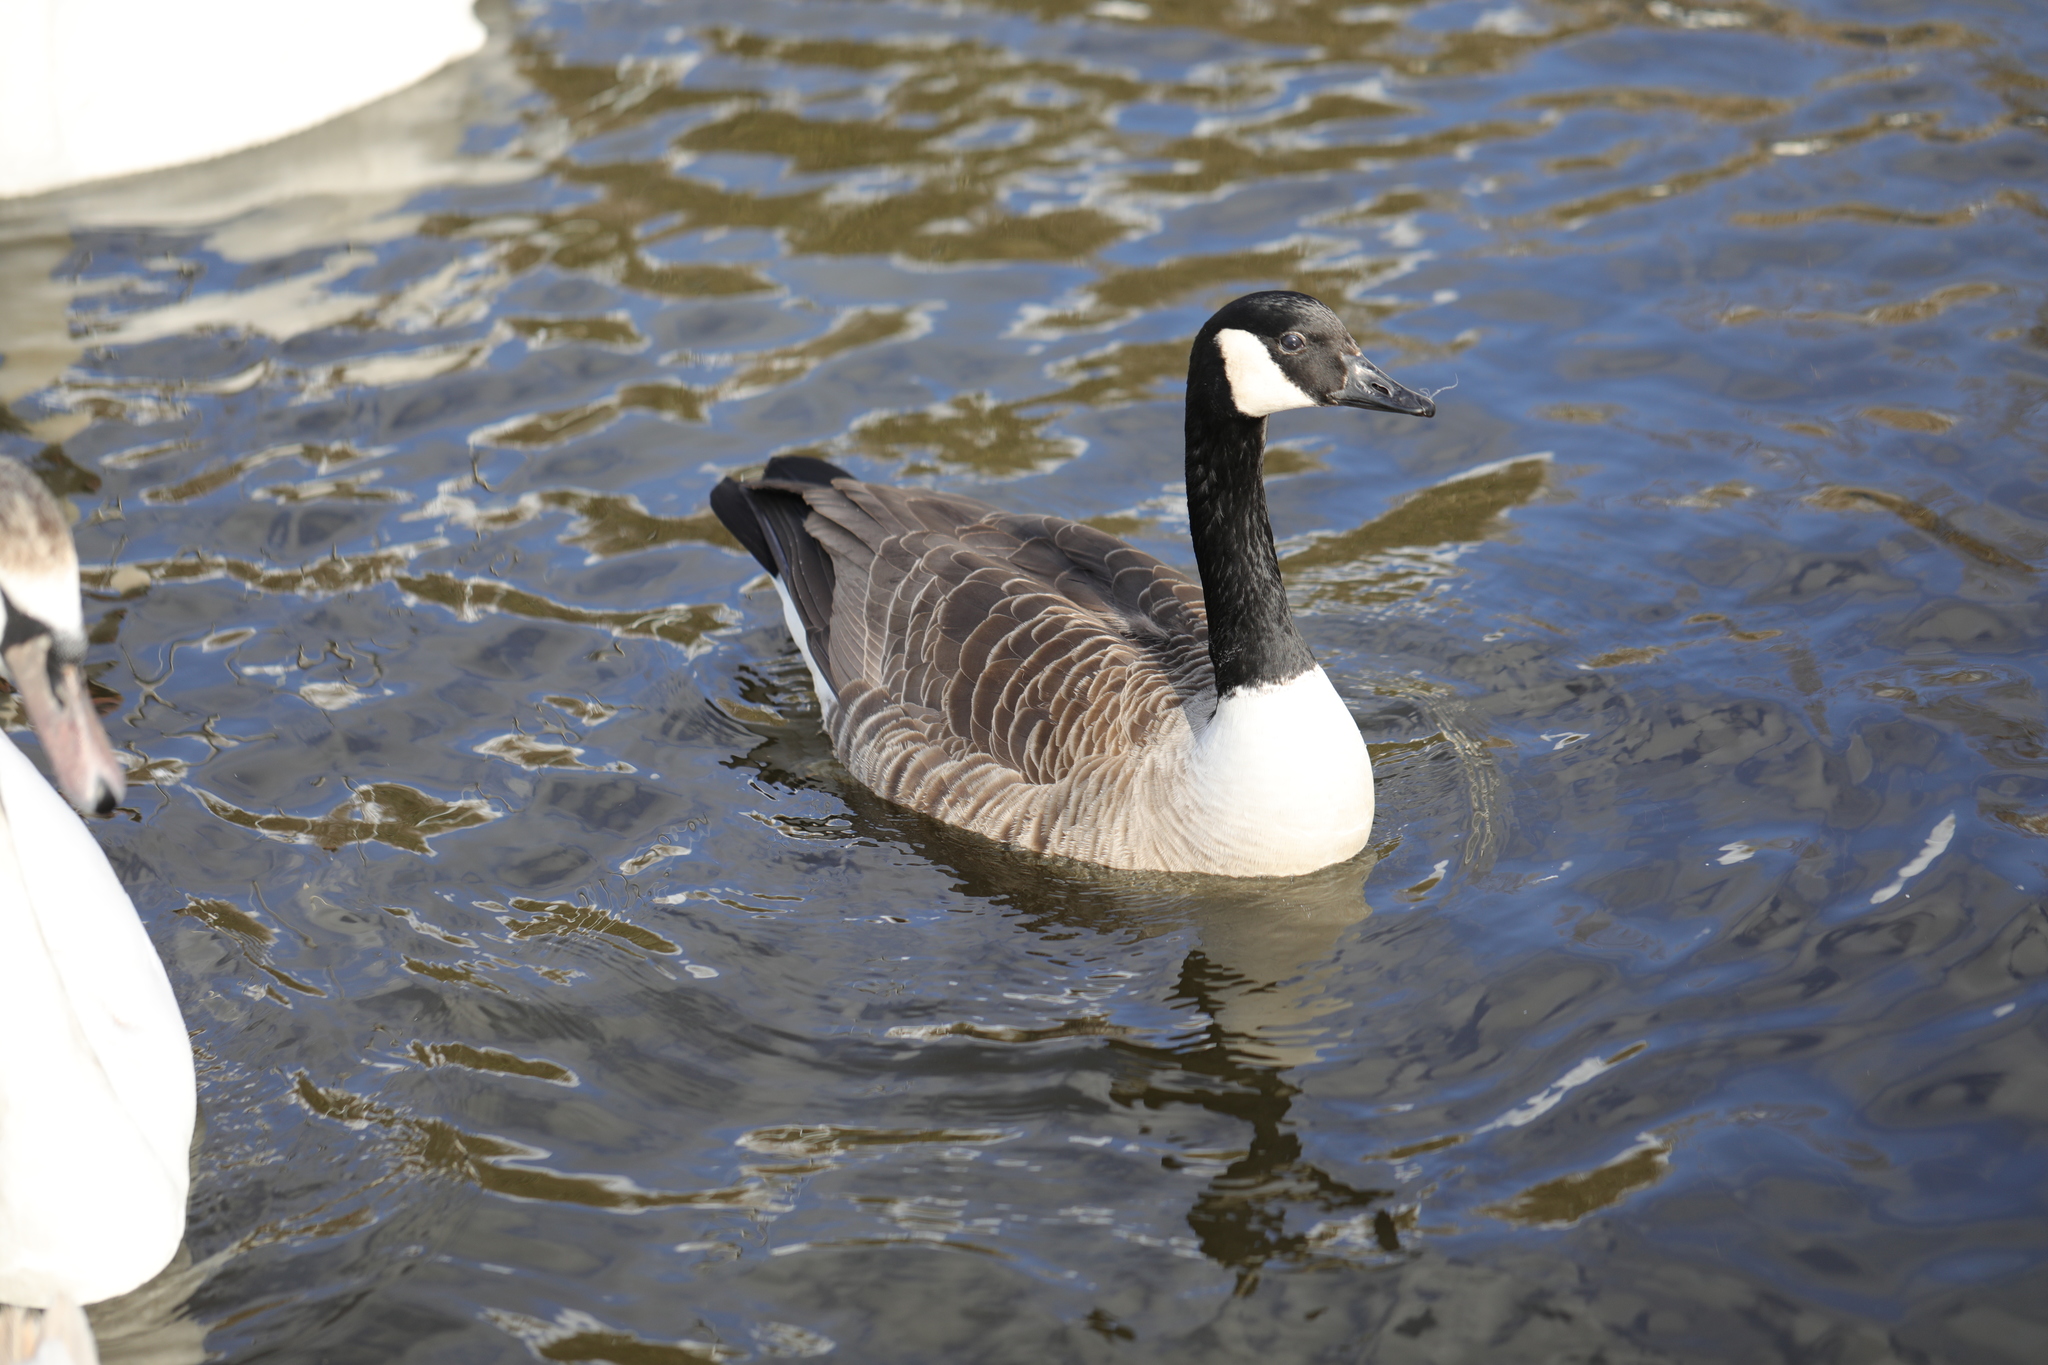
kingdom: Animalia
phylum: Chordata
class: Aves
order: Anseriformes
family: Anatidae
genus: Branta
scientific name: Branta canadensis
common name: Canada goose
